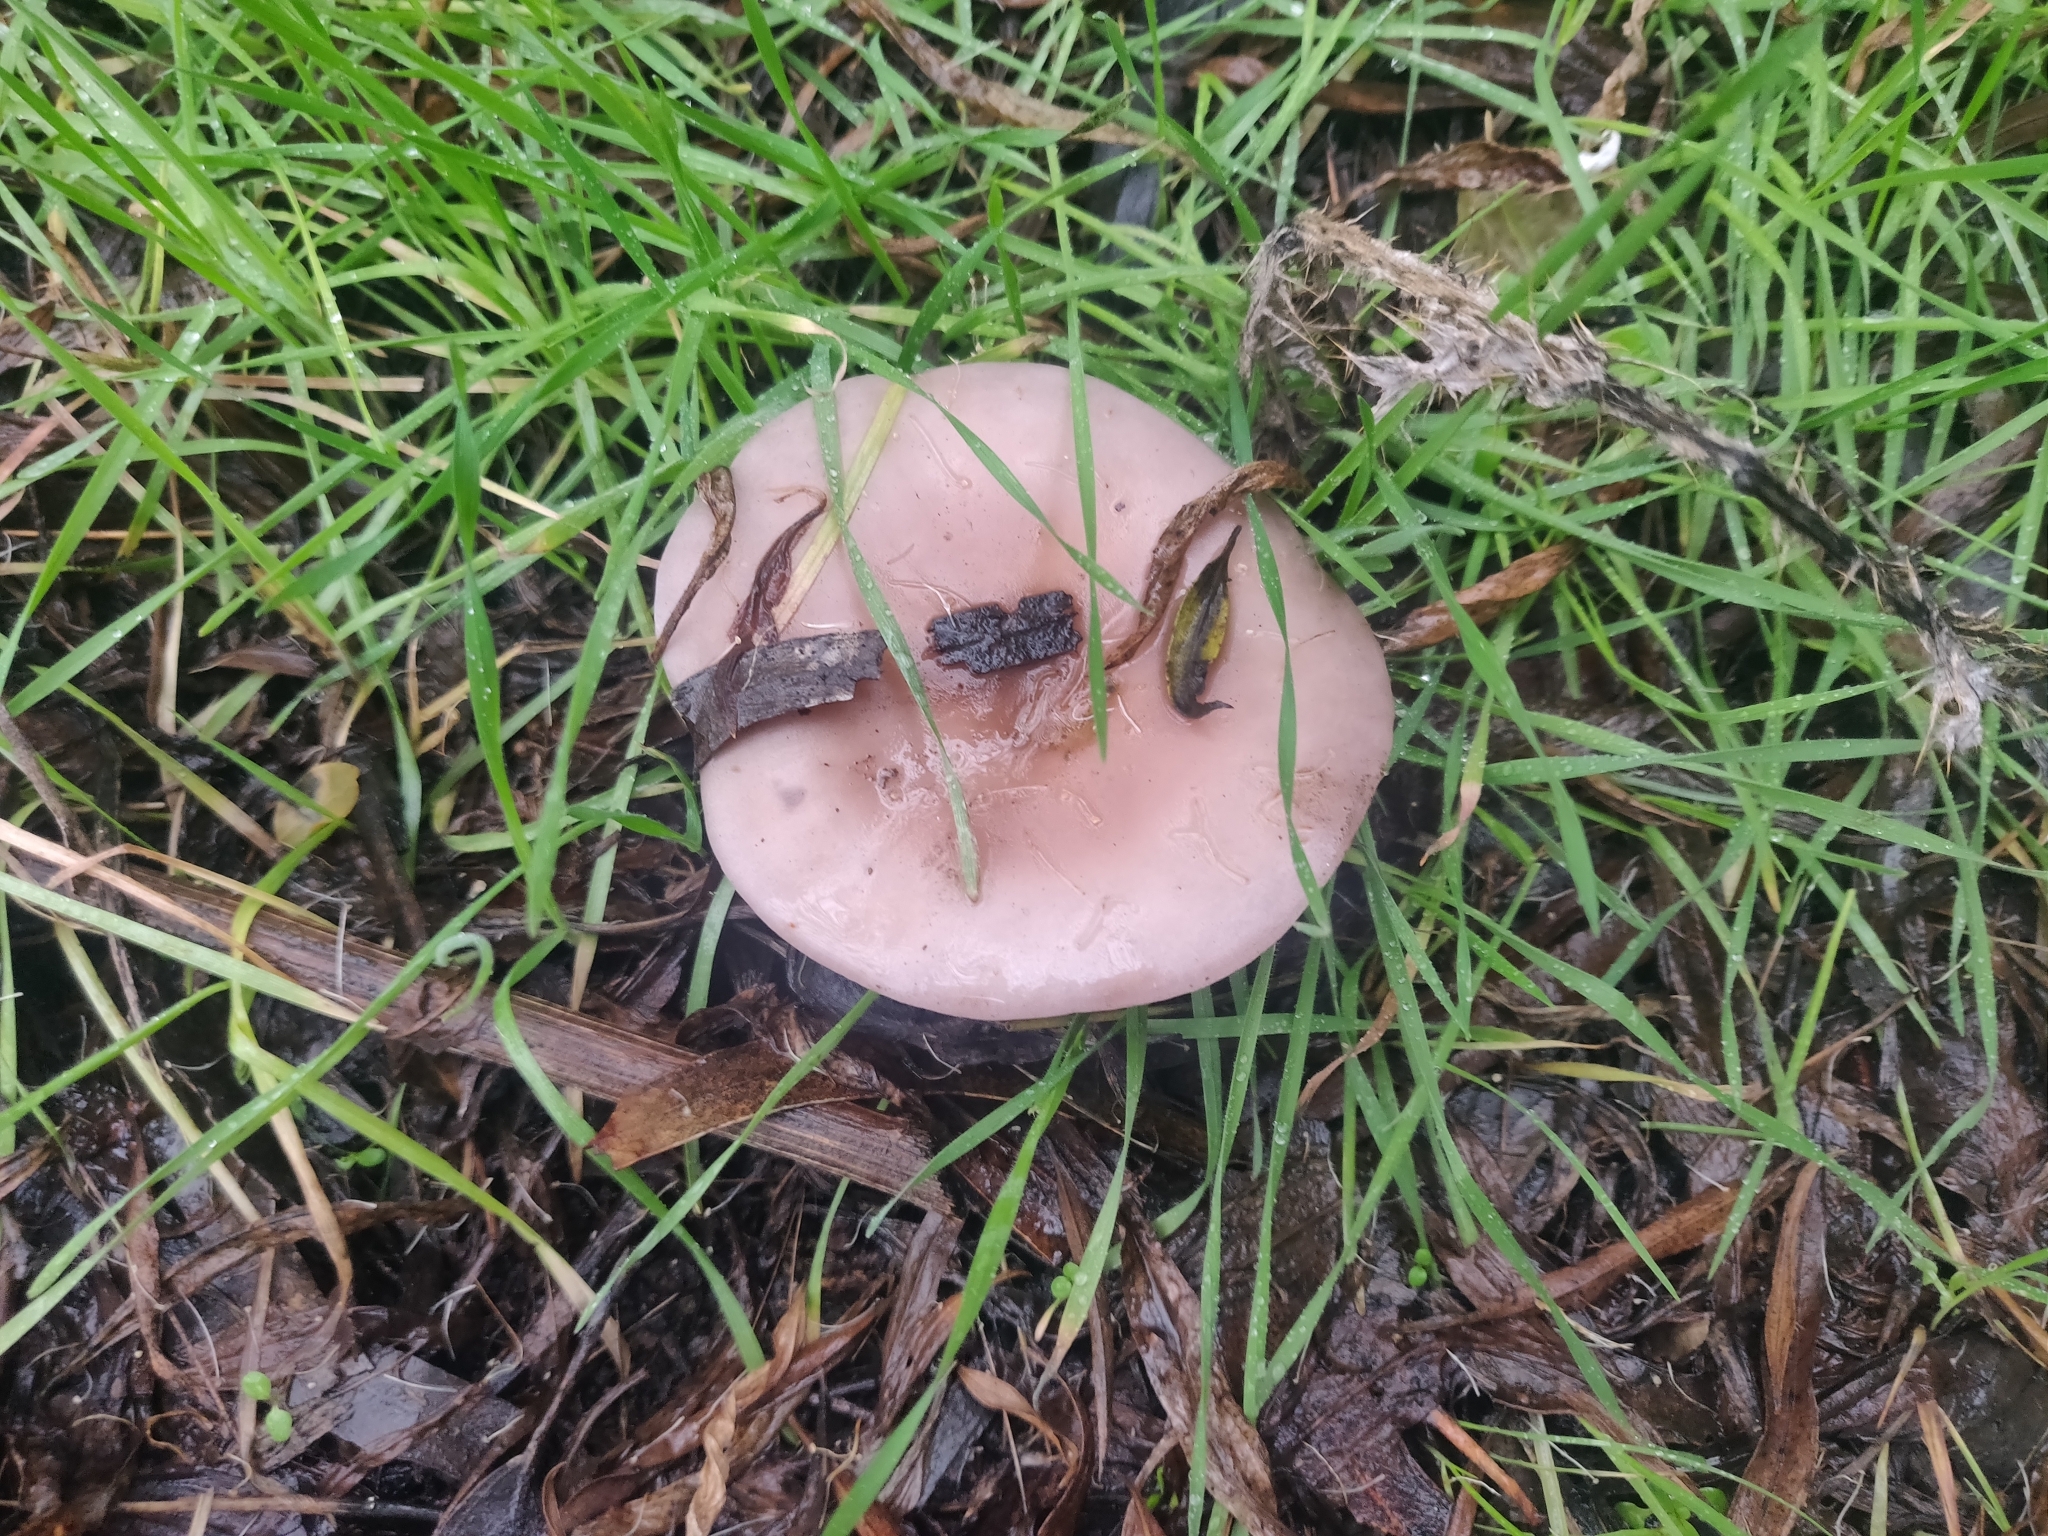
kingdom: Fungi
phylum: Basidiomycota
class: Agaricomycetes
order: Agaricales
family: Tricholomataceae
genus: Collybia
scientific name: Collybia
